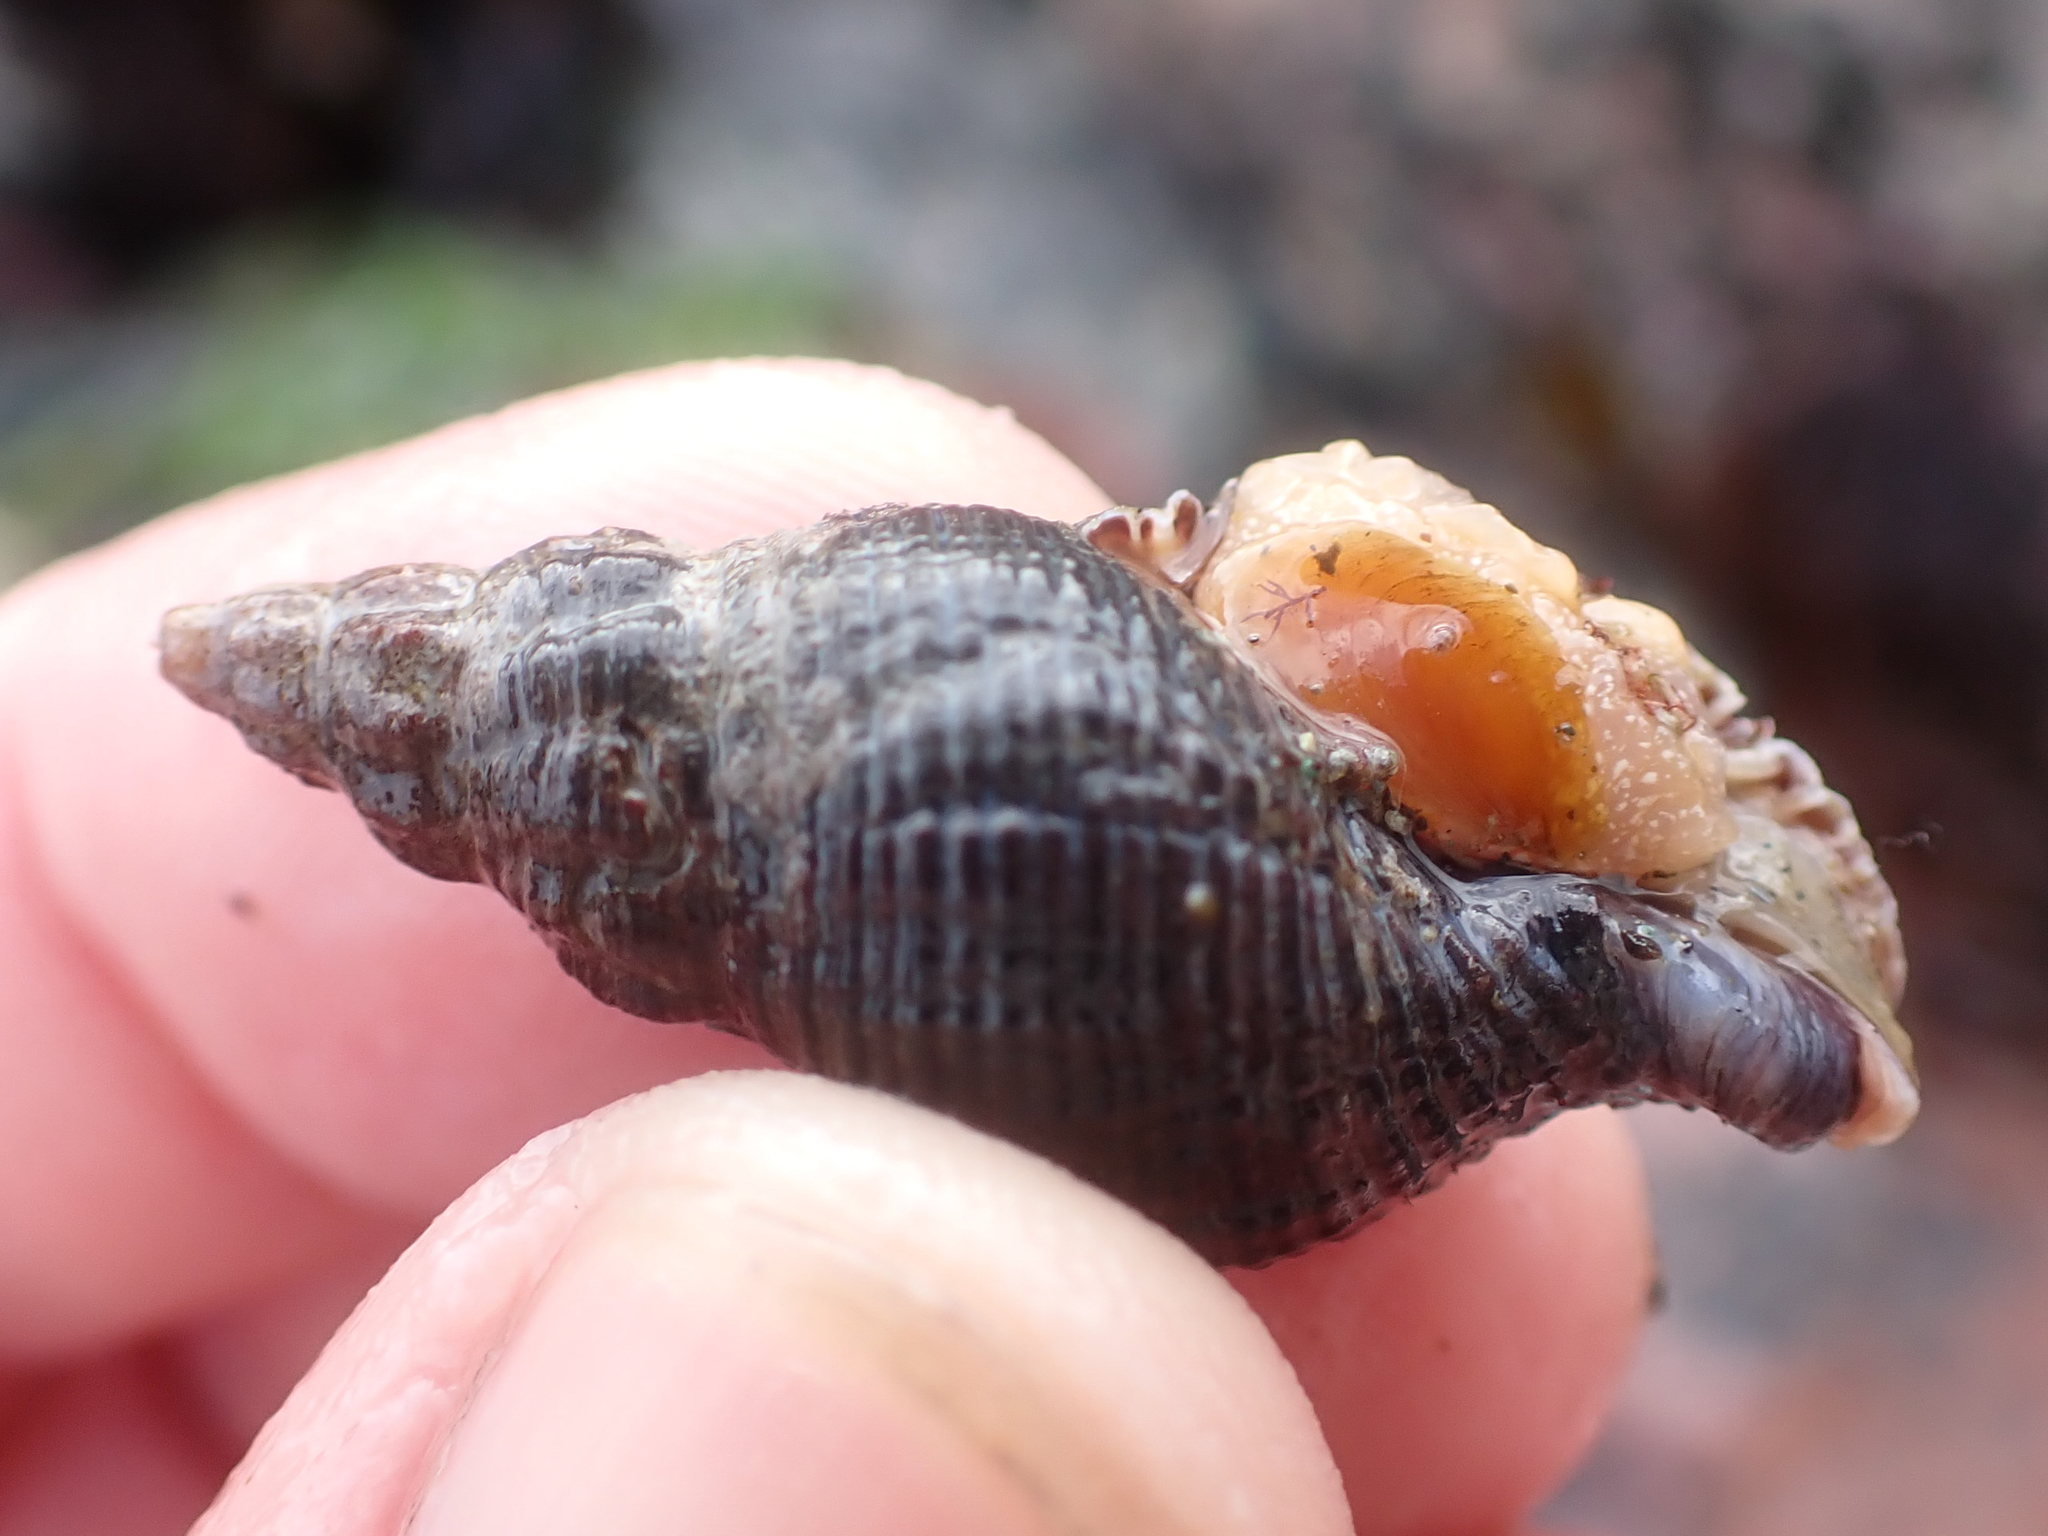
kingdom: Animalia
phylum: Mollusca
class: Gastropoda
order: Neogastropoda
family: Tudiclidae
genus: Lirabuccinum
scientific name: Lirabuccinum dirum
